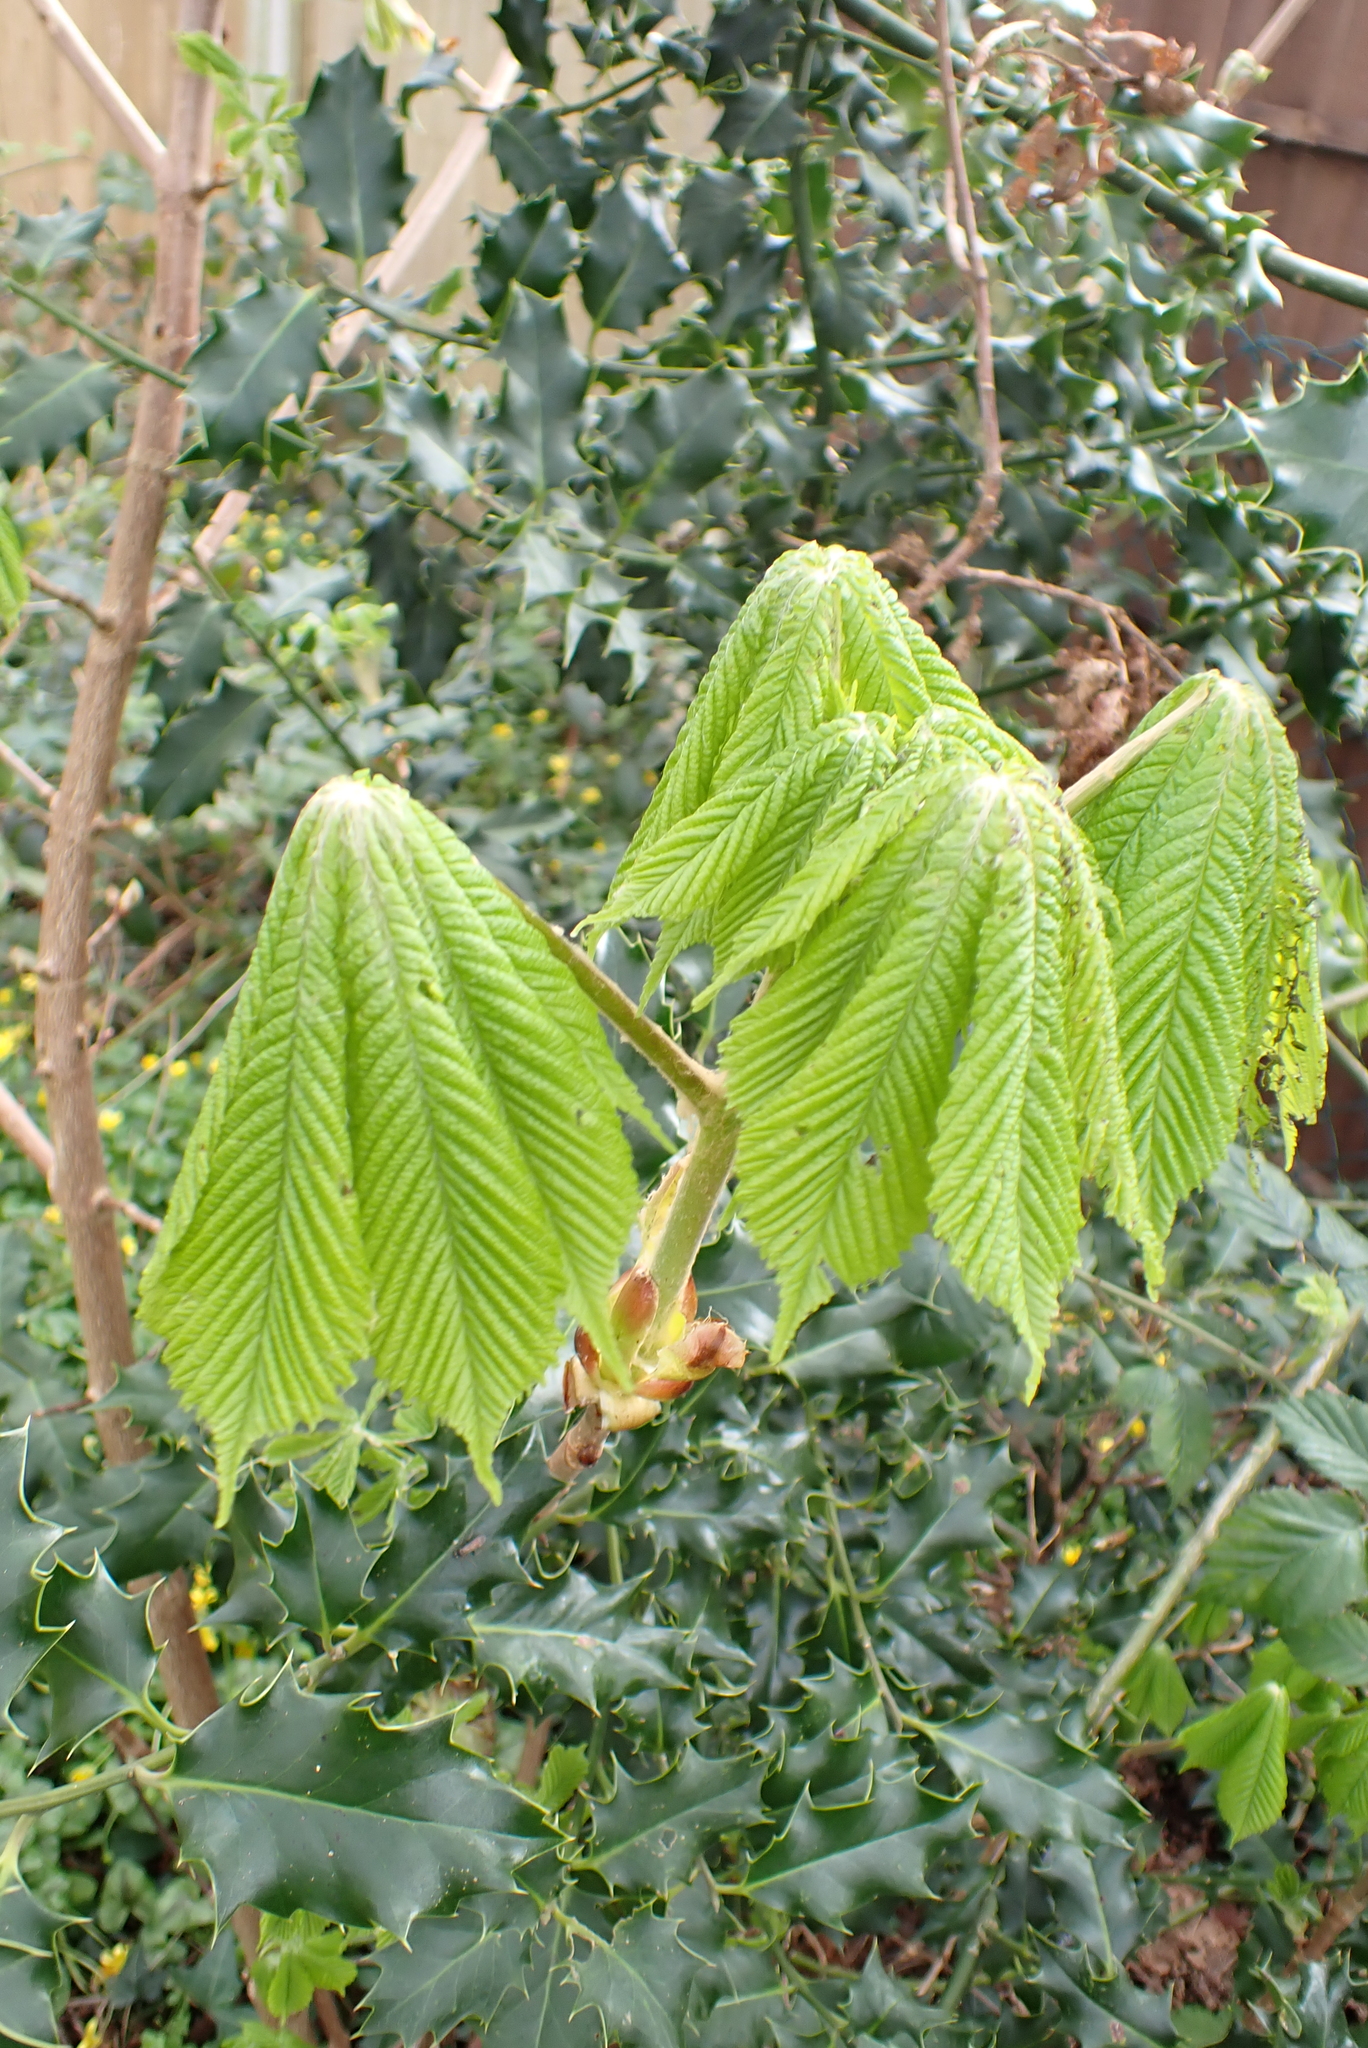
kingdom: Plantae
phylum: Tracheophyta
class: Magnoliopsida
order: Sapindales
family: Sapindaceae
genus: Aesculus
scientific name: Aesculus hippocastanum
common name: Horse-chestnut
